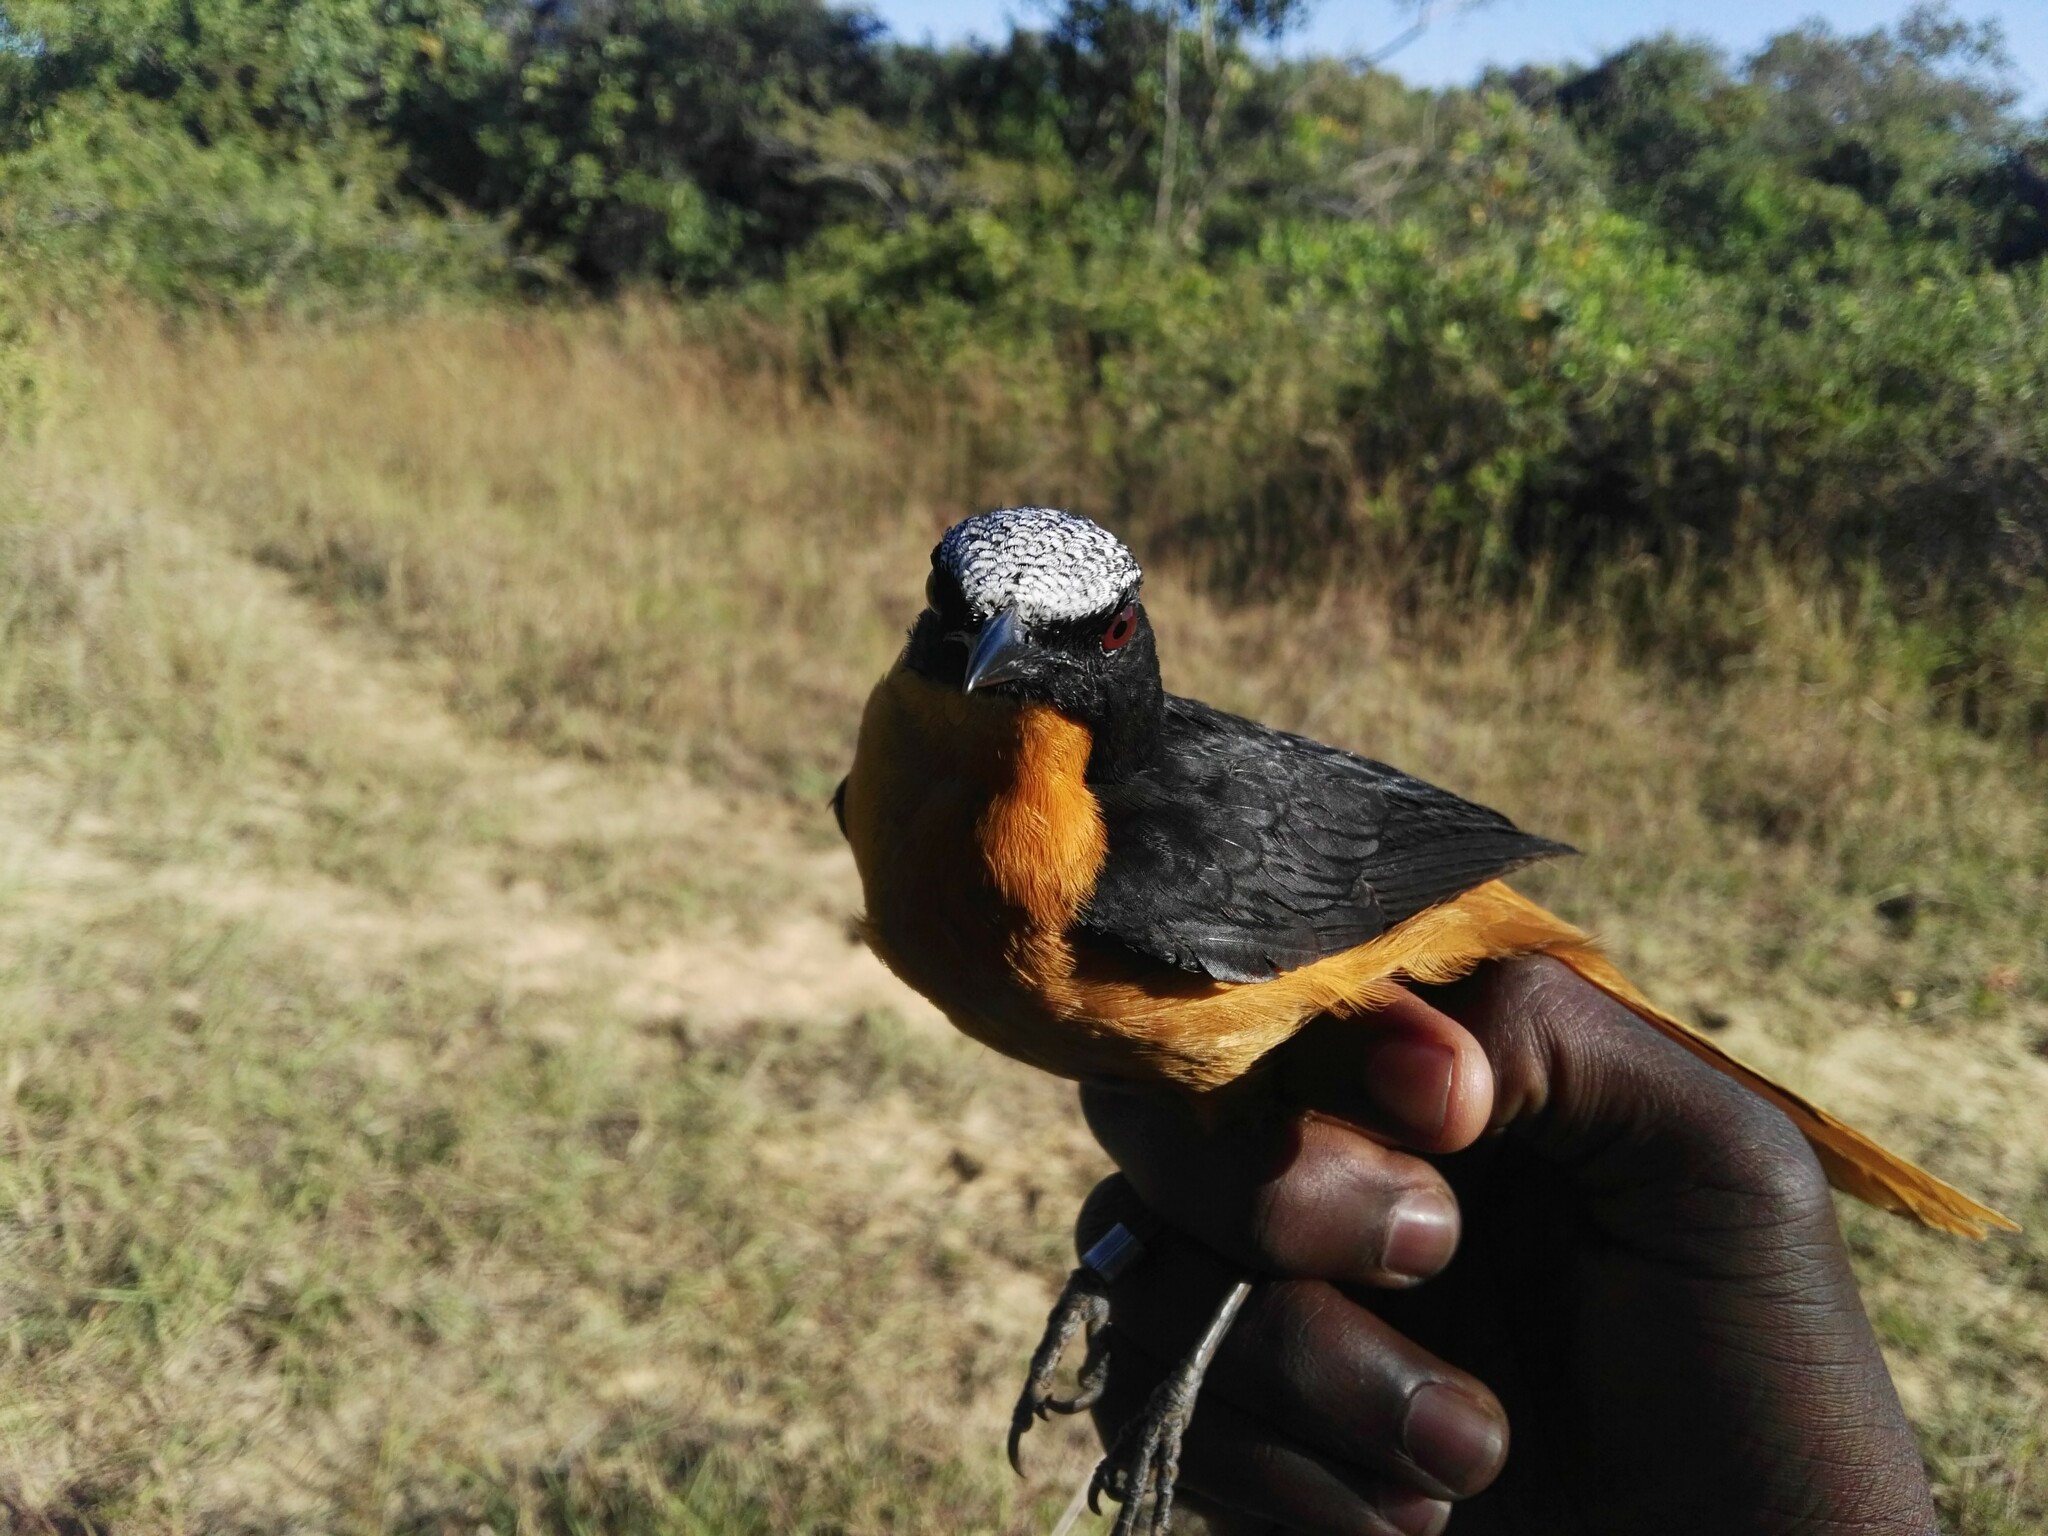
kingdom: Animalia
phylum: Chordata
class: Aves
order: Passeriformes
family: Muscicapidae
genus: Cossypha
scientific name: Cossypha albicapillus
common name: White-crowned robin-chat
